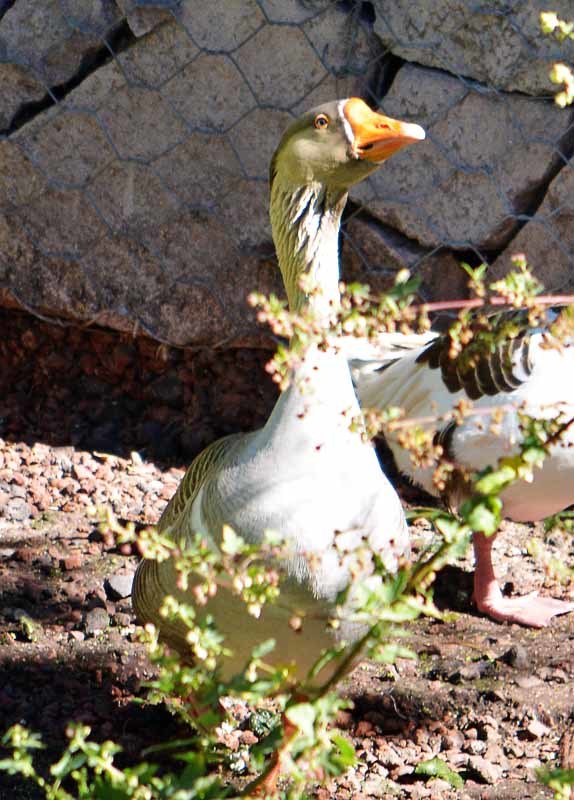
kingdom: Animalia
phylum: Chordata
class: Aves
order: Anseriformes
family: Anatidae
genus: Anser
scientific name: Anser
